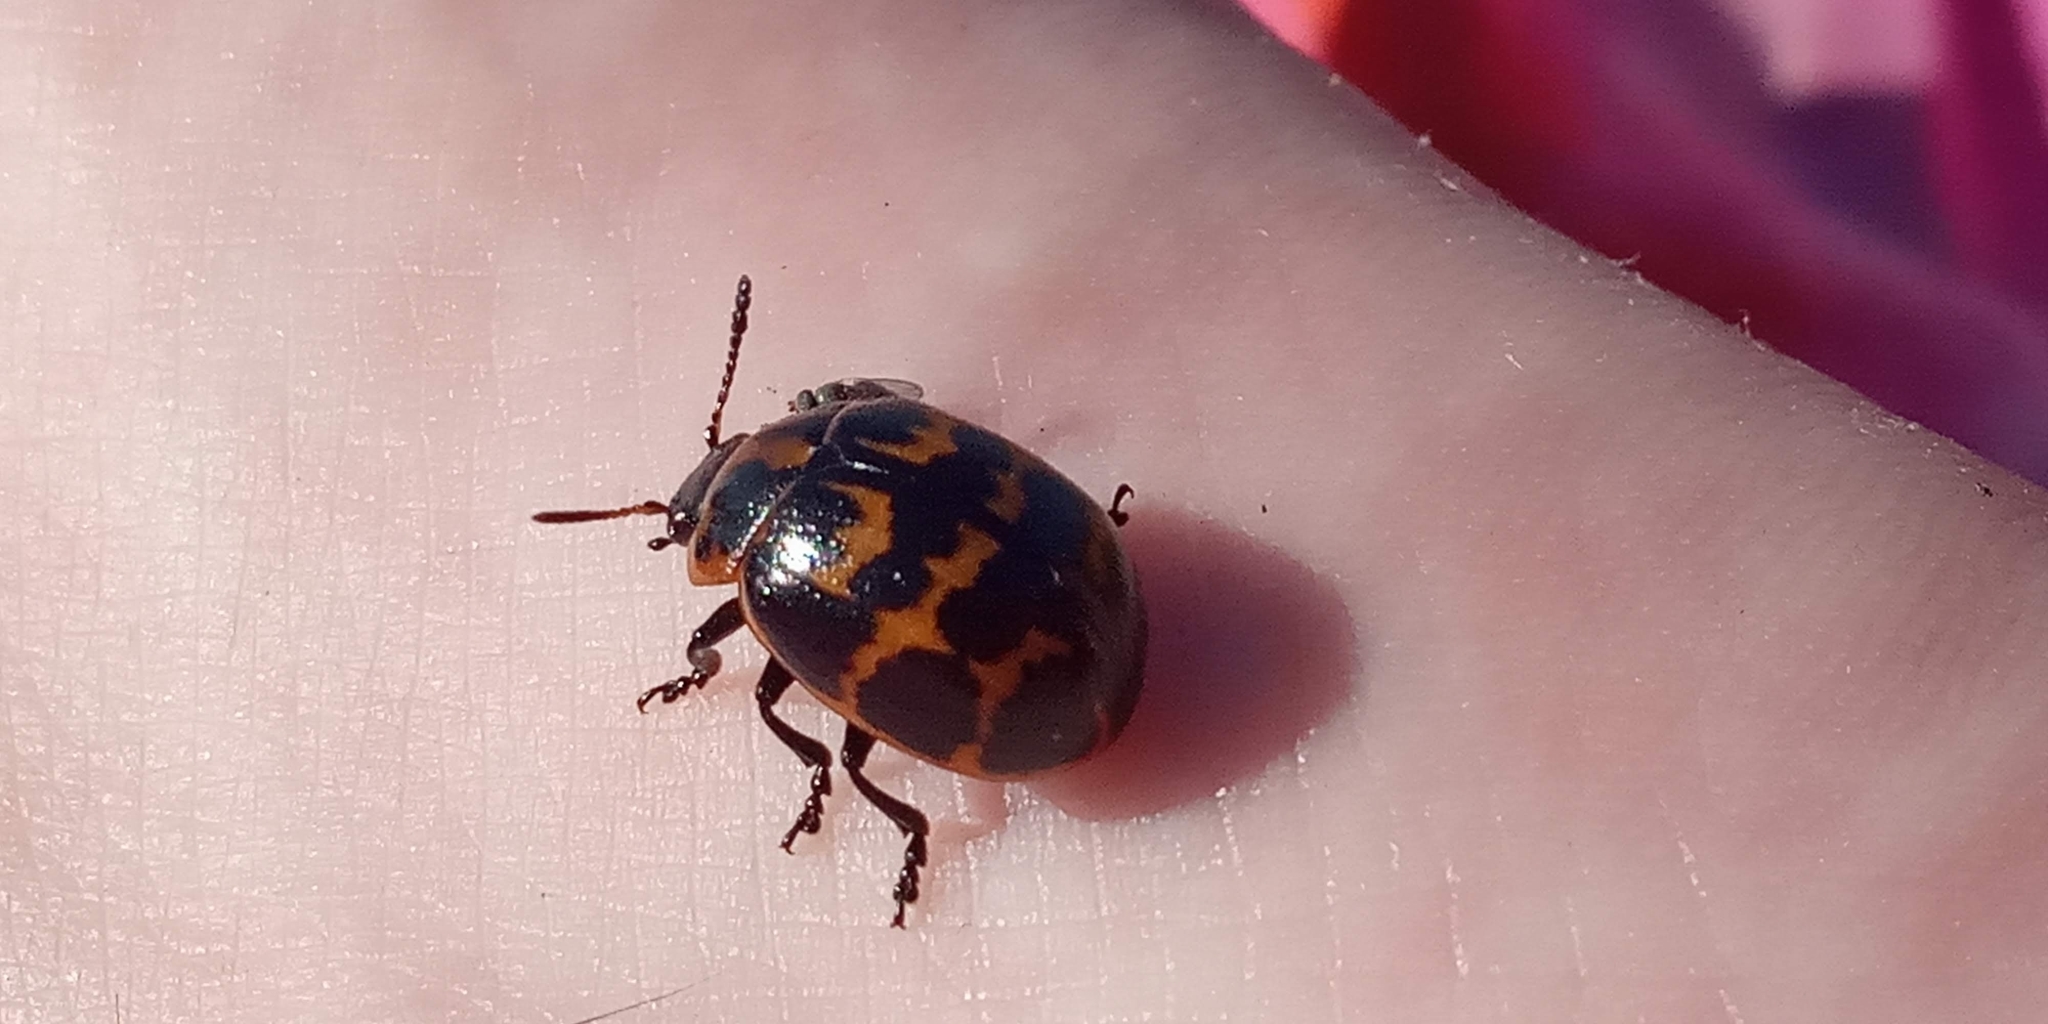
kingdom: Animalia
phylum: Arthropoda
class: Insecta
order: Coleoptera
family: Chrysomelidae
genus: Platyphora
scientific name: Platyphora
